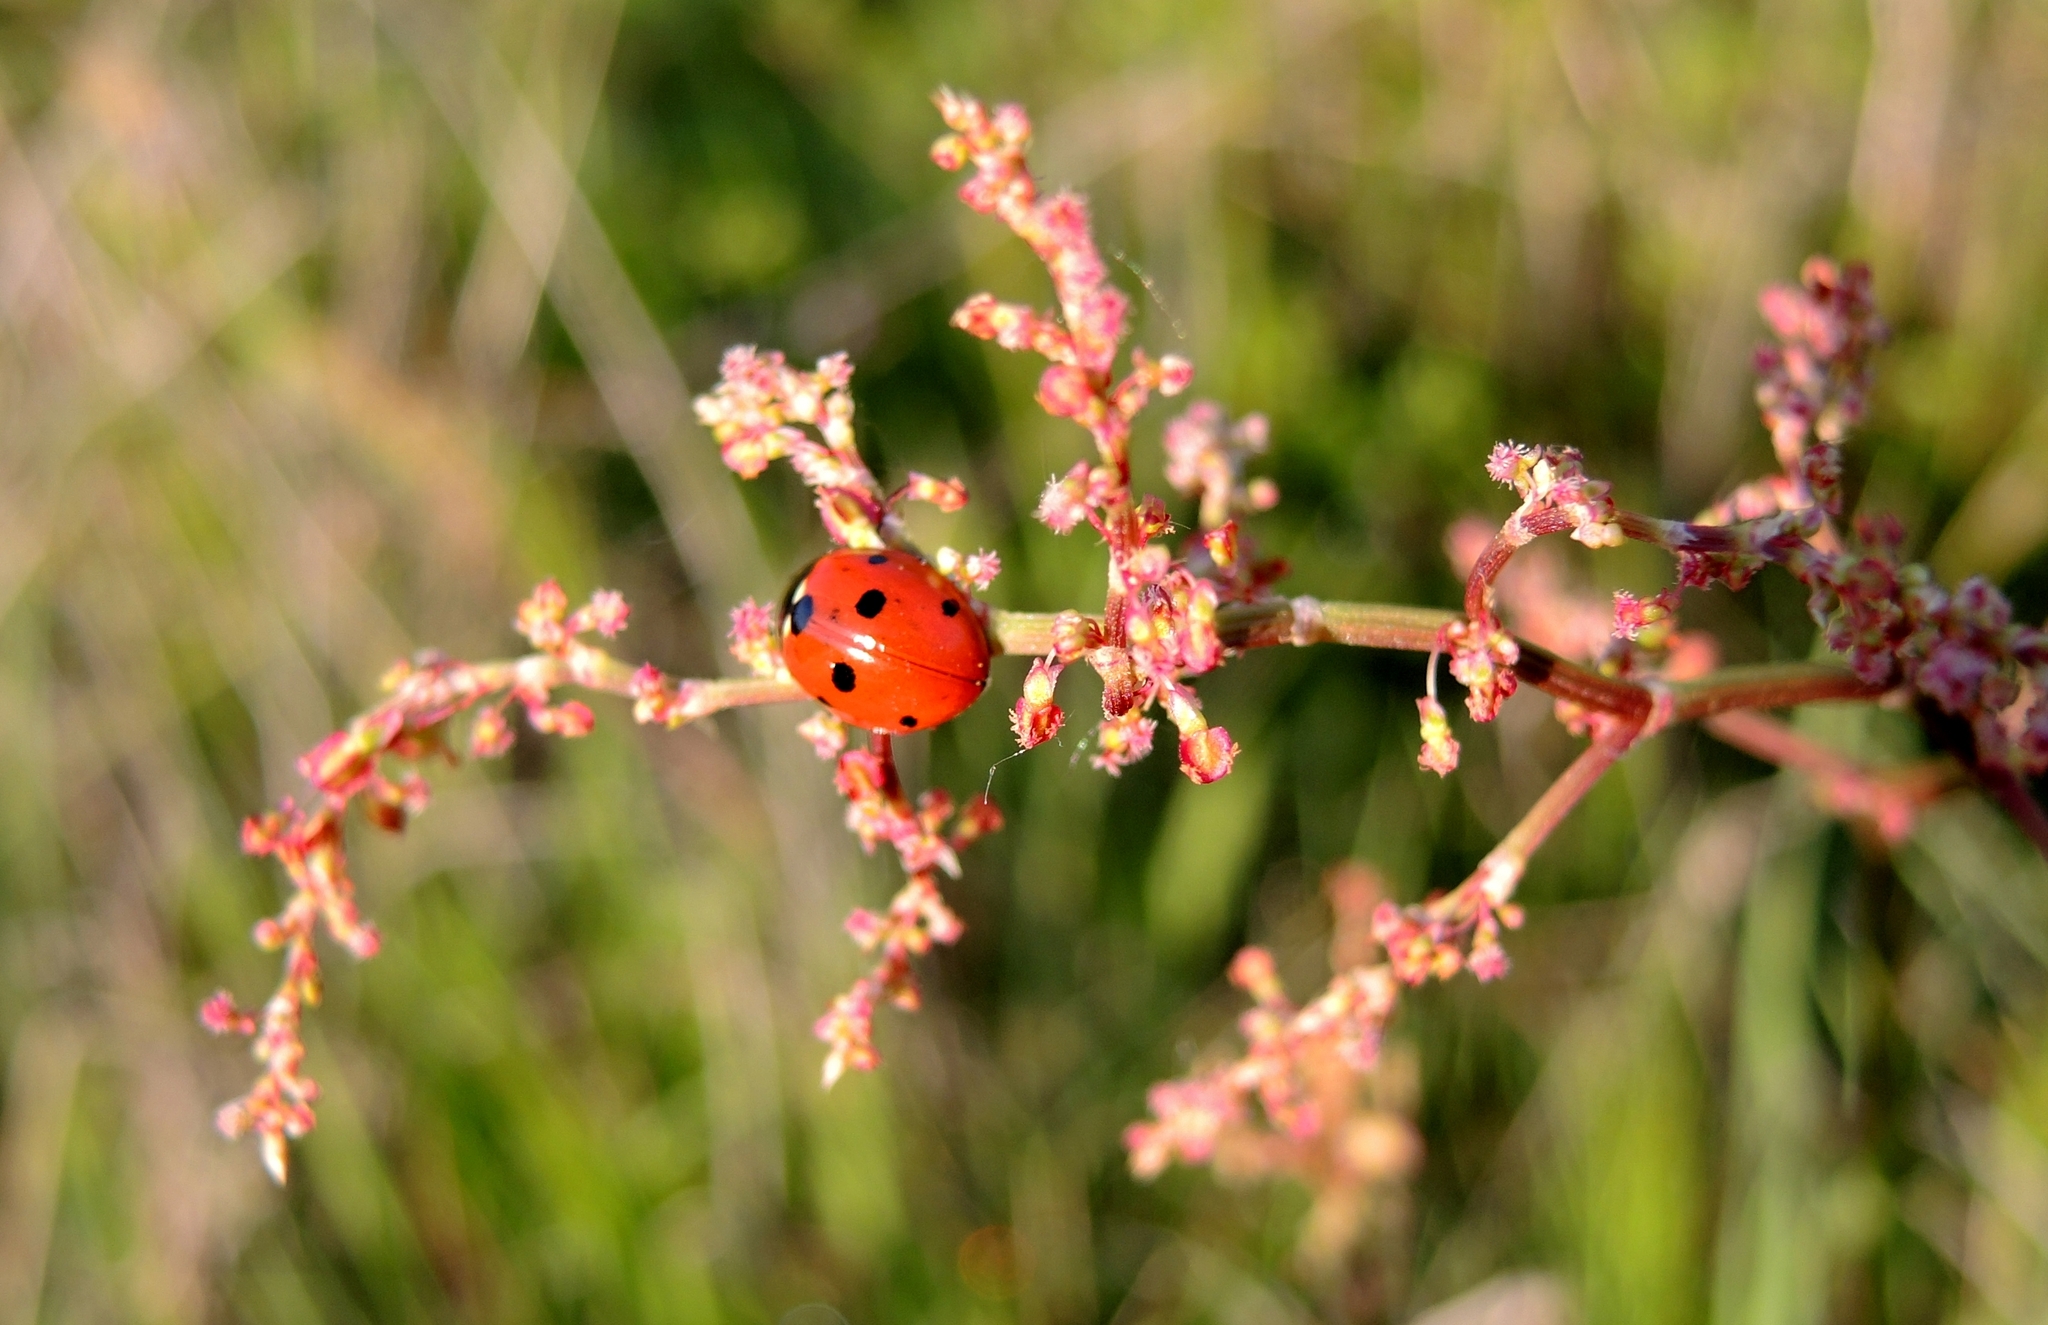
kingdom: Animalia
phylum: Arthropoda
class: Insecta
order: Coleoptera
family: Coccinellidae
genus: Coccinella
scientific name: Coccinella septempunctata
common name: Sevenspotted lady beetle
